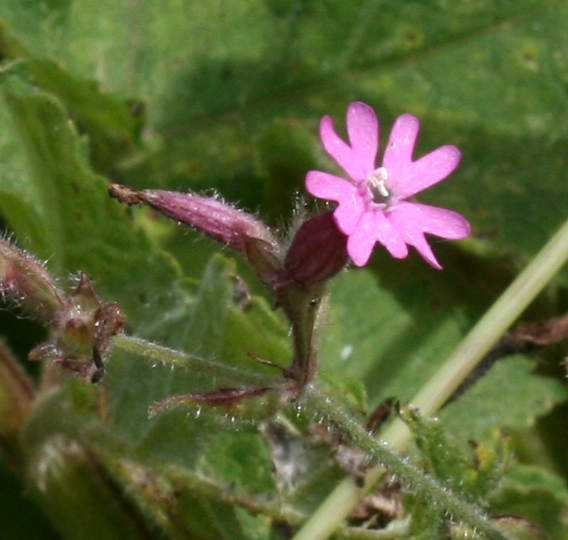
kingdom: Plantae
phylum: Tracheophyta
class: Magnoliopsida
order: Caryophyllales
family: Caryophyllaceae
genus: Silene
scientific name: Silene dioica
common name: Red campion
